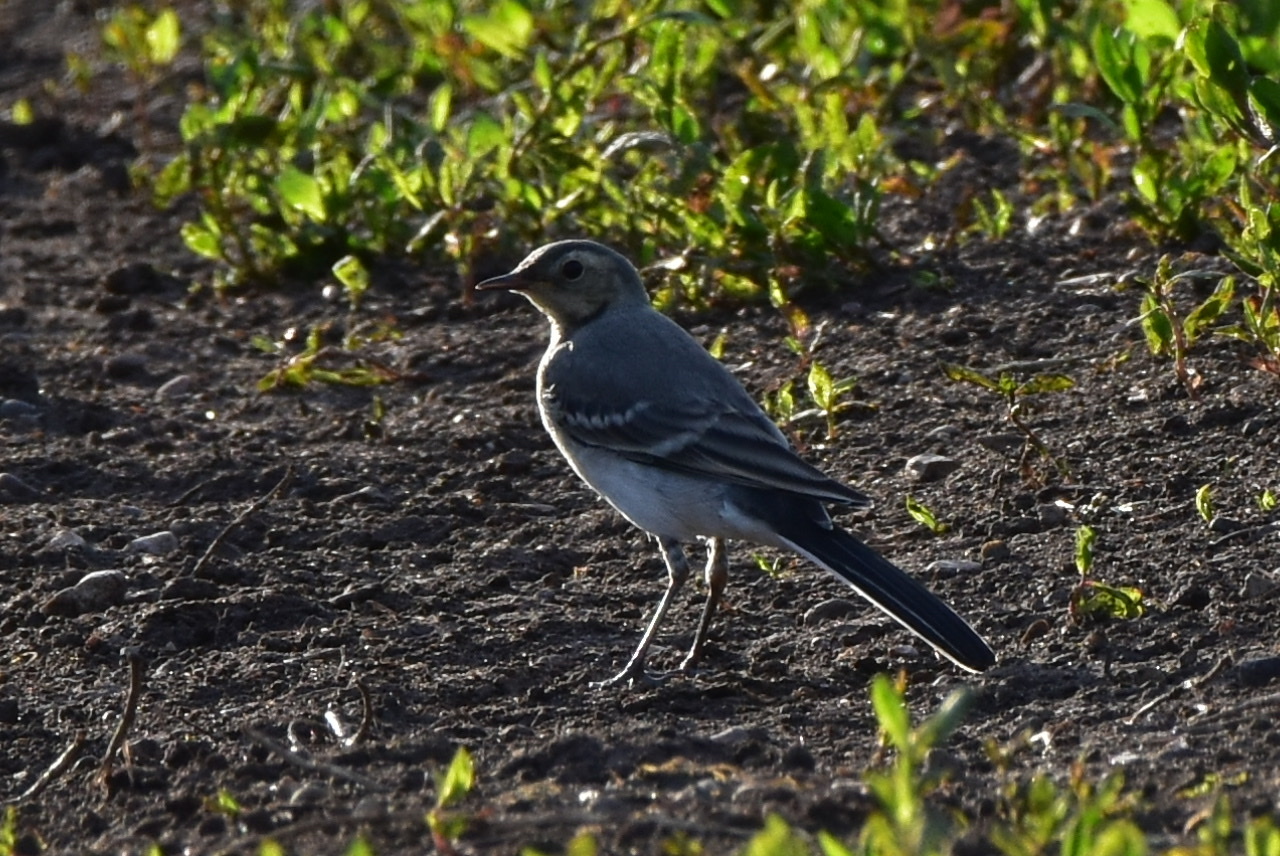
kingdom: Animalia
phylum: Chordata
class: Aves
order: Passeriformes
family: Motacillidae
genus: Motacilla
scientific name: Motacilla alba
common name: White wagtail
